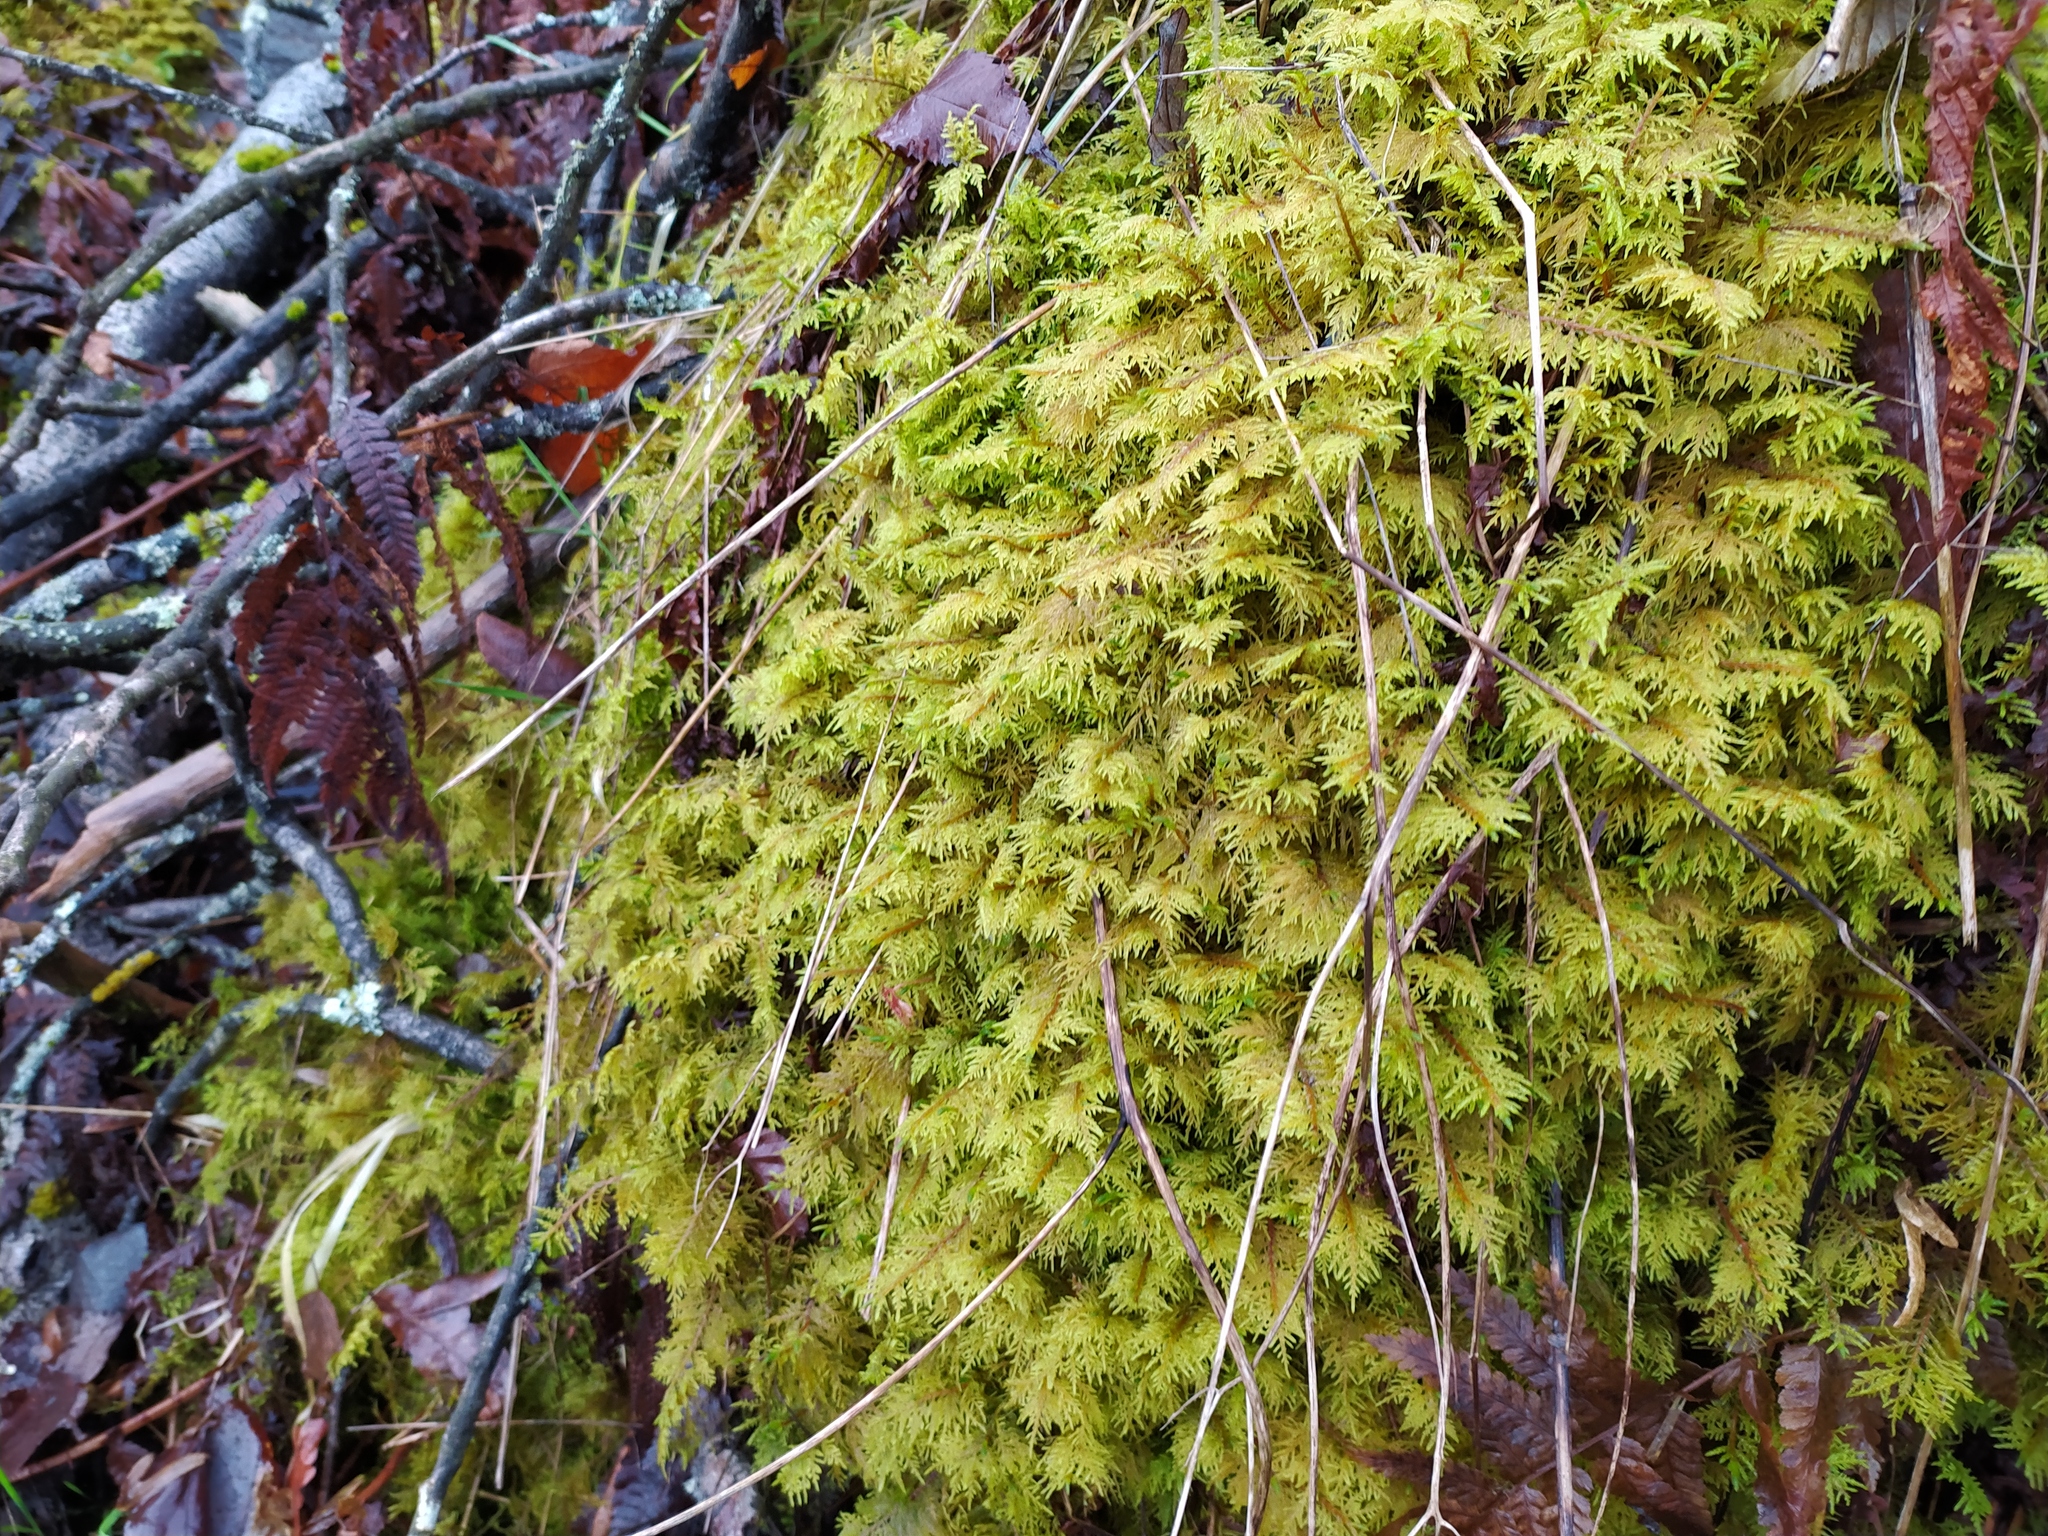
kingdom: Plantae
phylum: Bryophyta
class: Bryopsida
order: Hypnales
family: Hylocomiaceae
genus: Hylocomium
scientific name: Hylocomium splendens
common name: Stairstep moss
